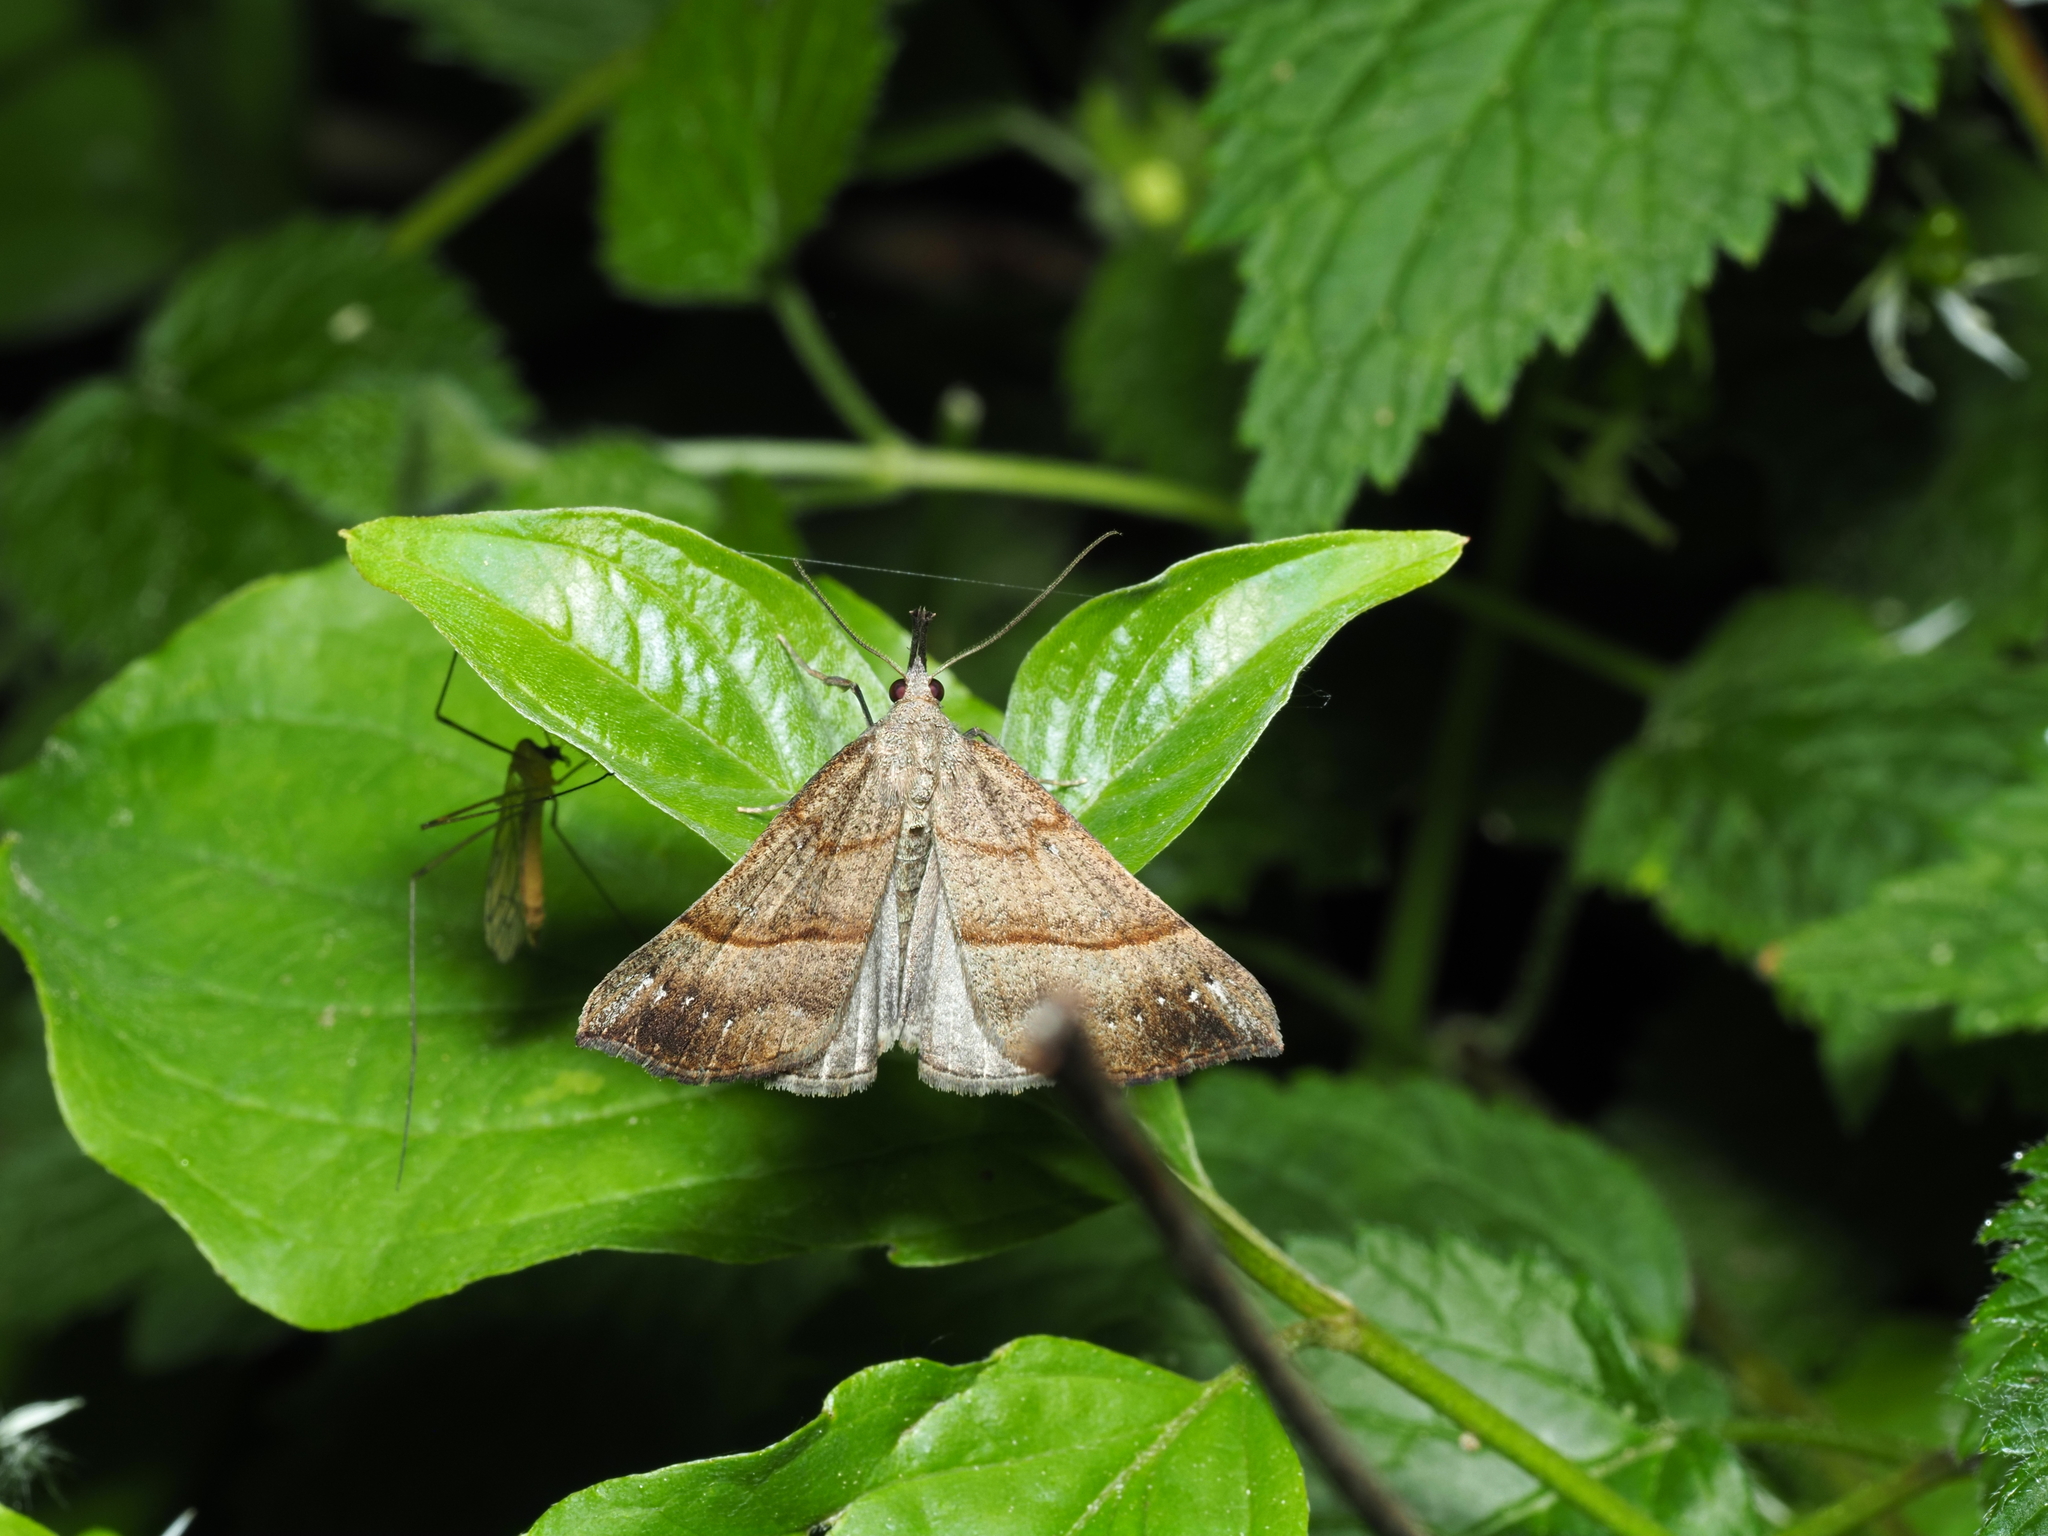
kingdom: Animalia
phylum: Arthropoda
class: Insecta
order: Lepidoptera
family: Erebidae
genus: Hypena
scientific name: Hypena proboscidalis
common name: Snout
